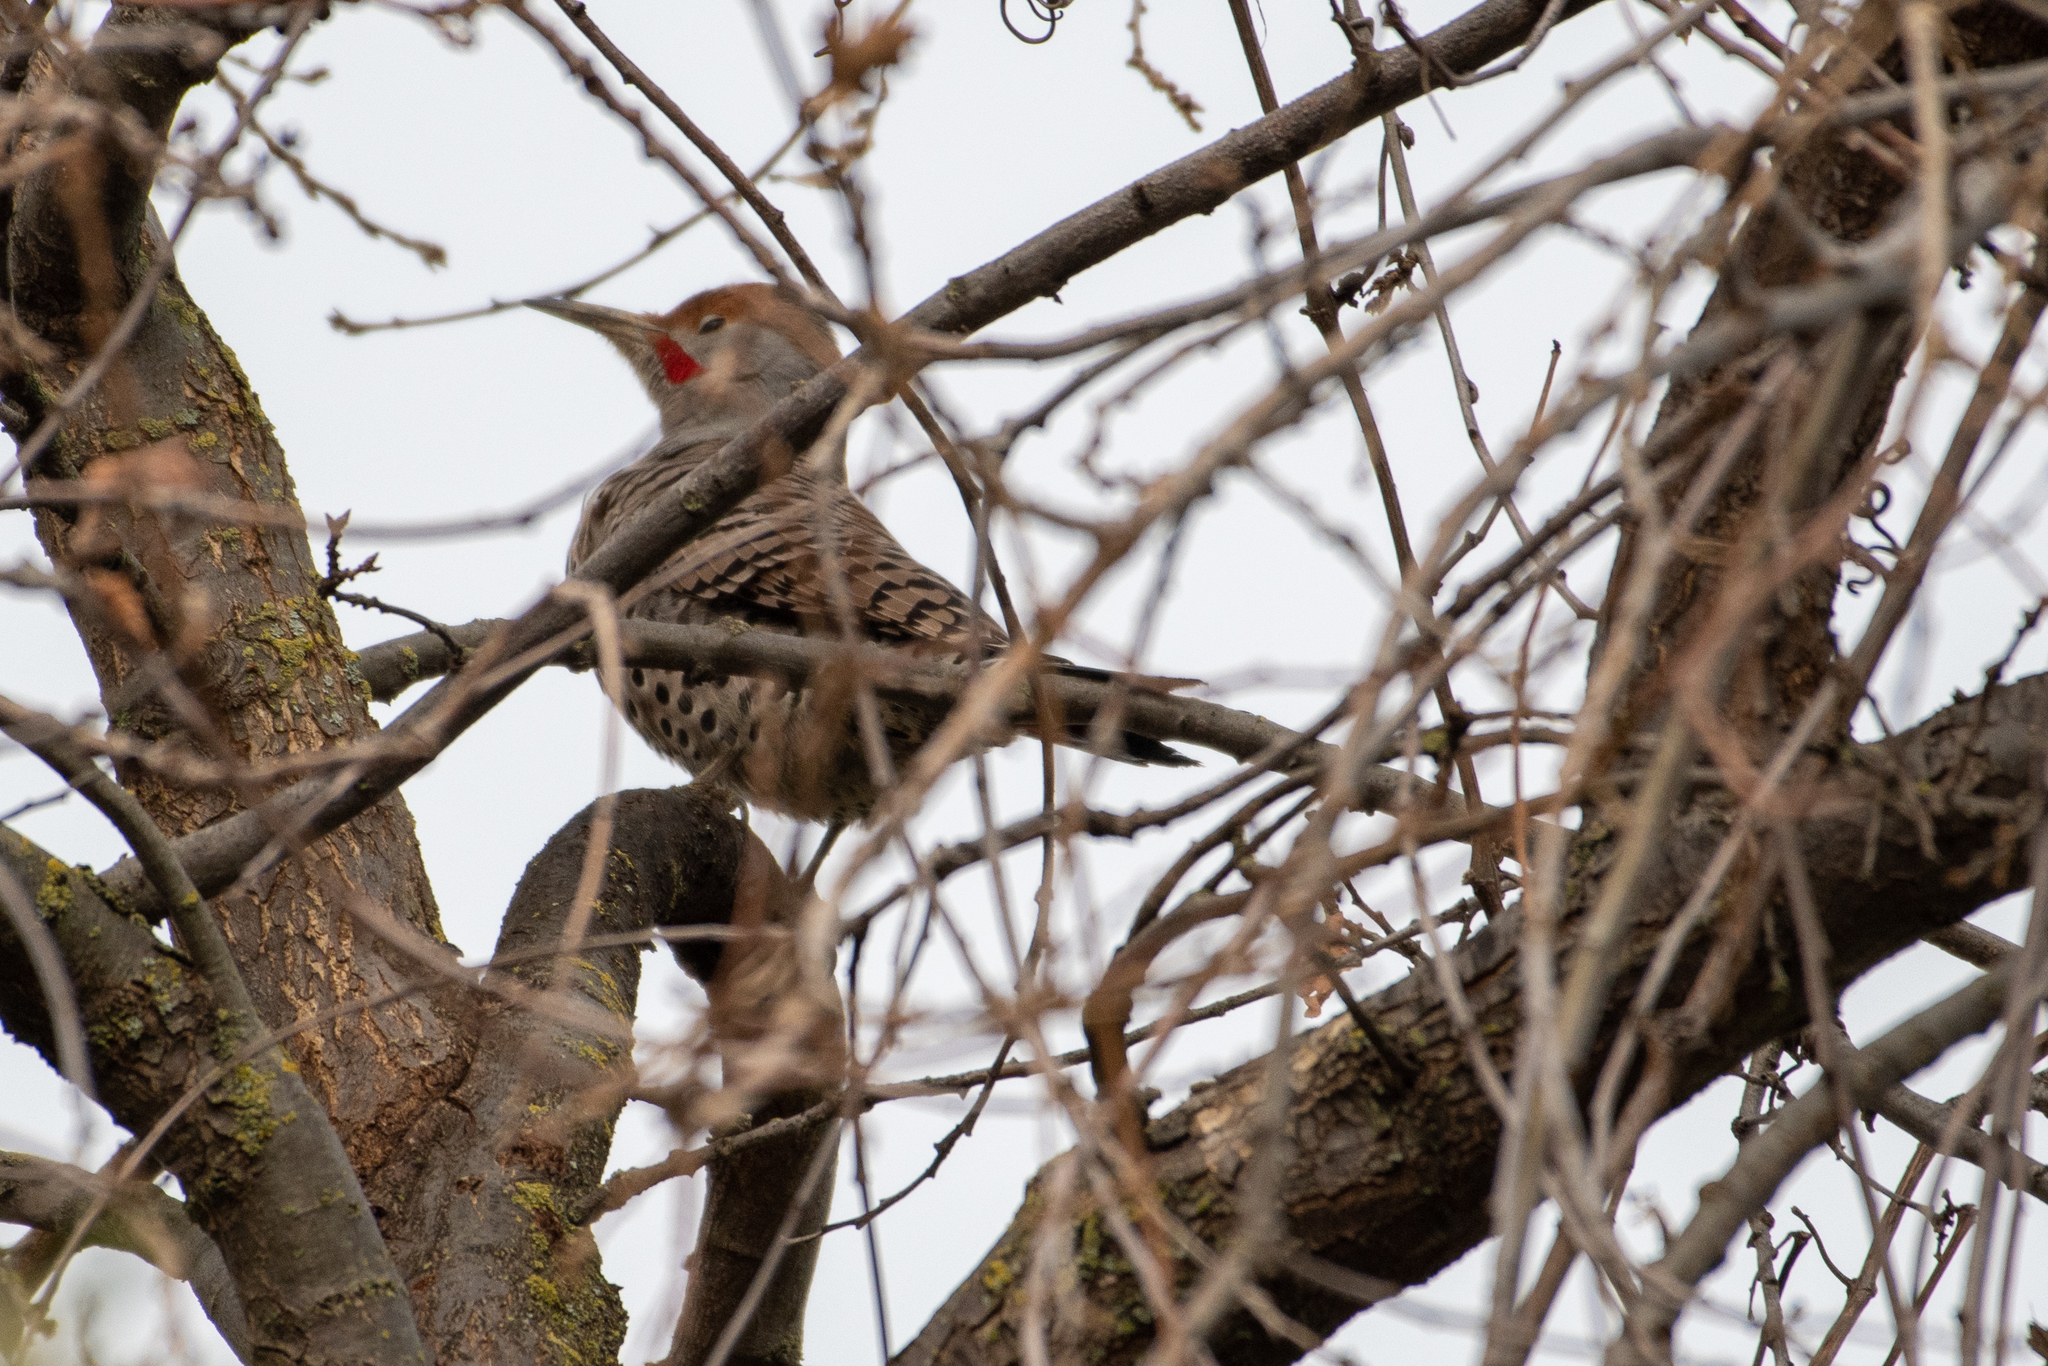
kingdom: Animalia
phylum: Chordata
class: Aves
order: Piciformes
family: Picidae
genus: Colaptes
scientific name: Colaptes auratus
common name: Northern flicker
